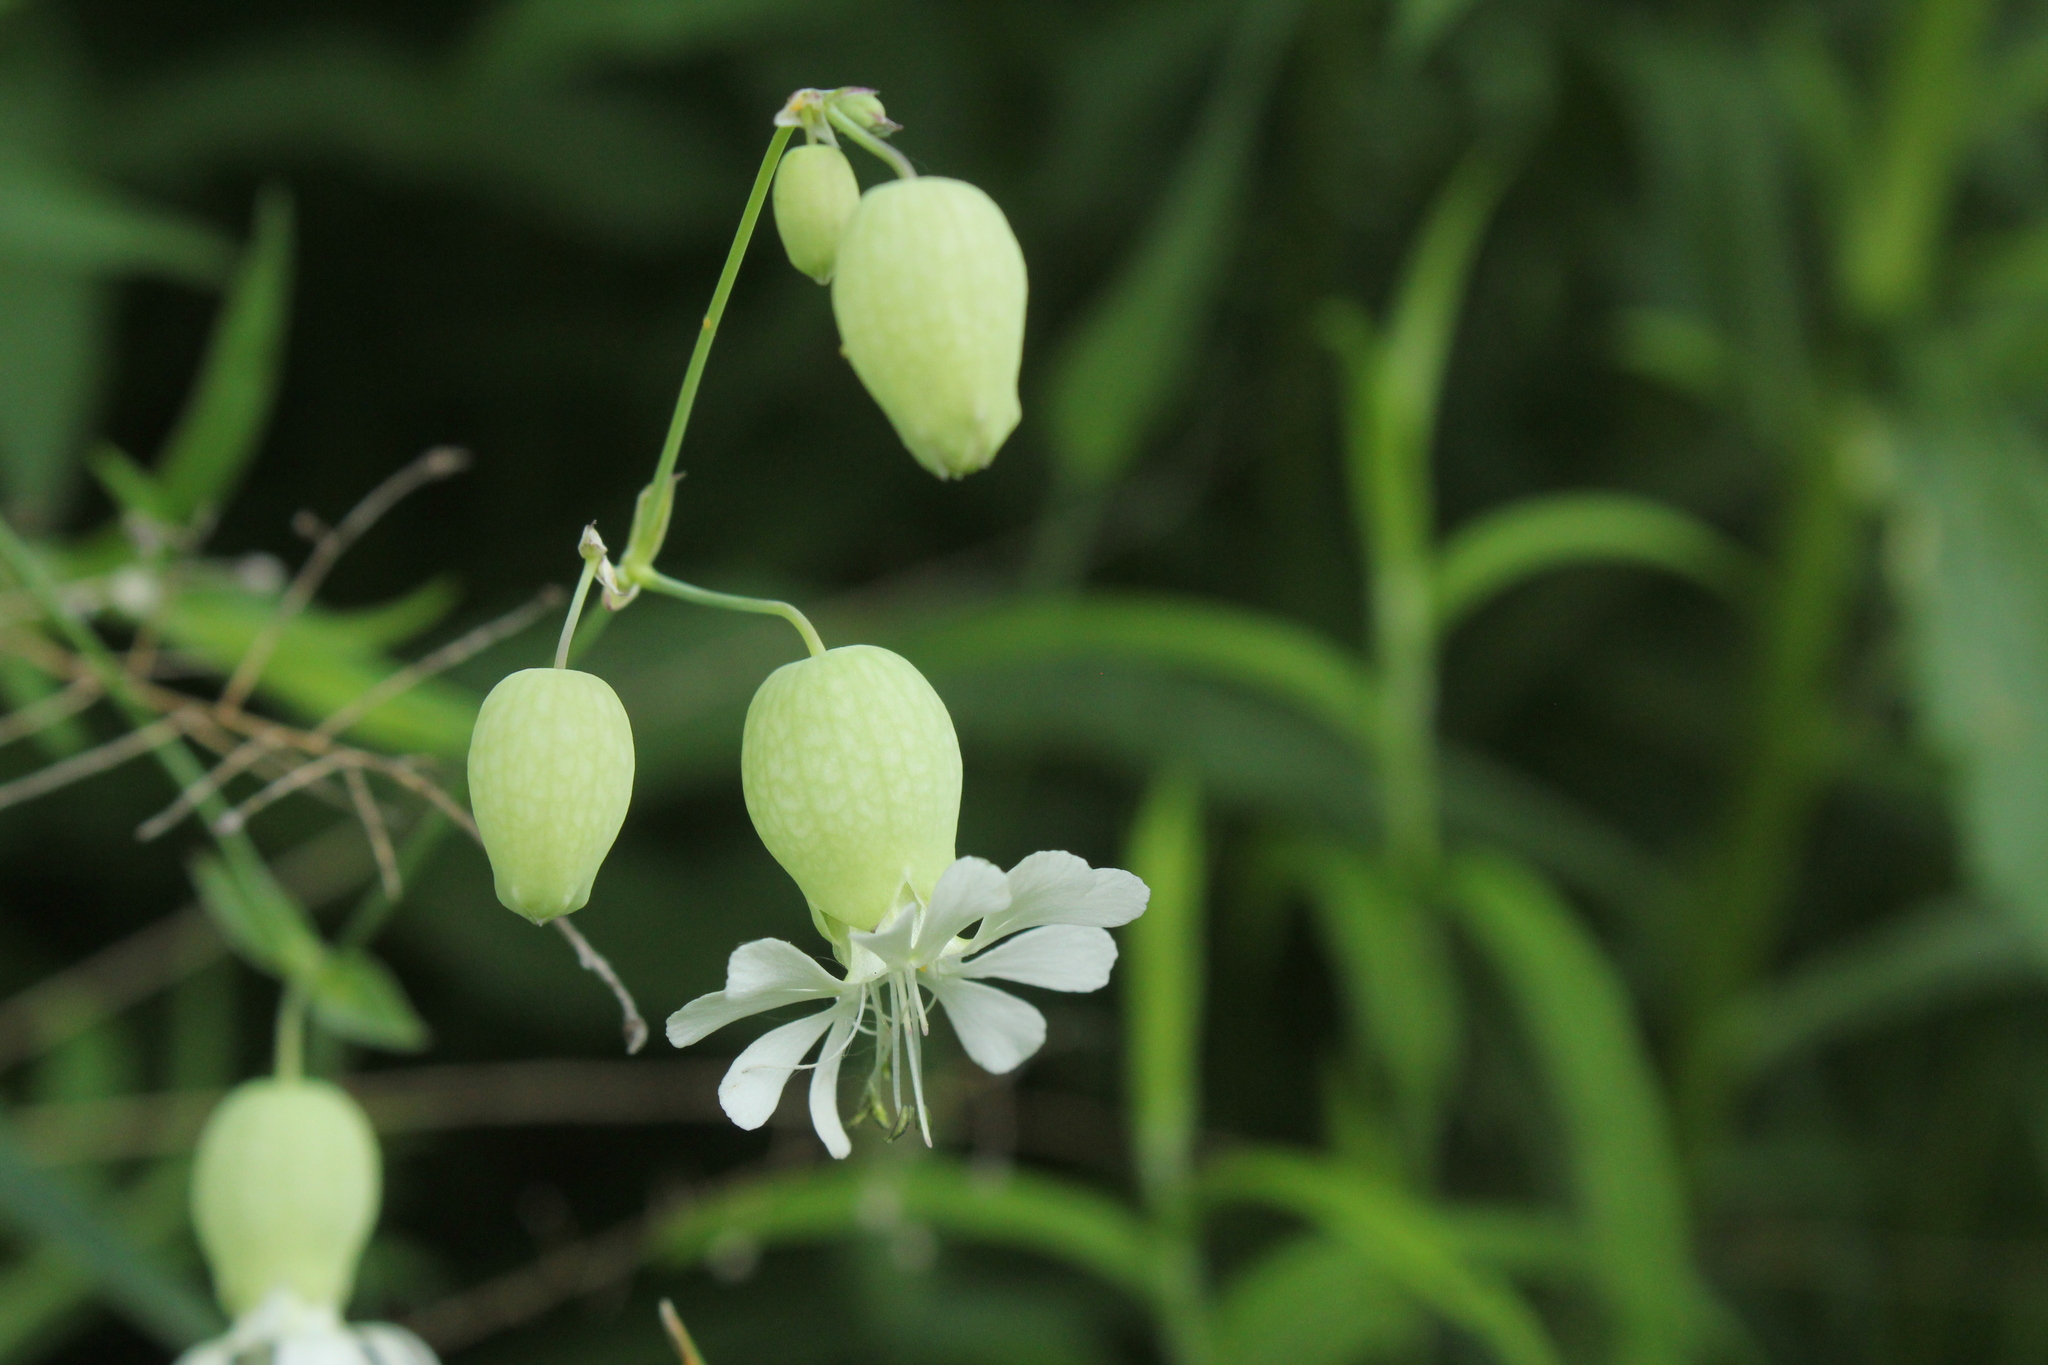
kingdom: Plantae
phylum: Tracheophyta
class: Magnoliopsida
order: Caryophyllales
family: Caryophyllaceae
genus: Silene
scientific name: Silene vulgaris
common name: Bladder campion
